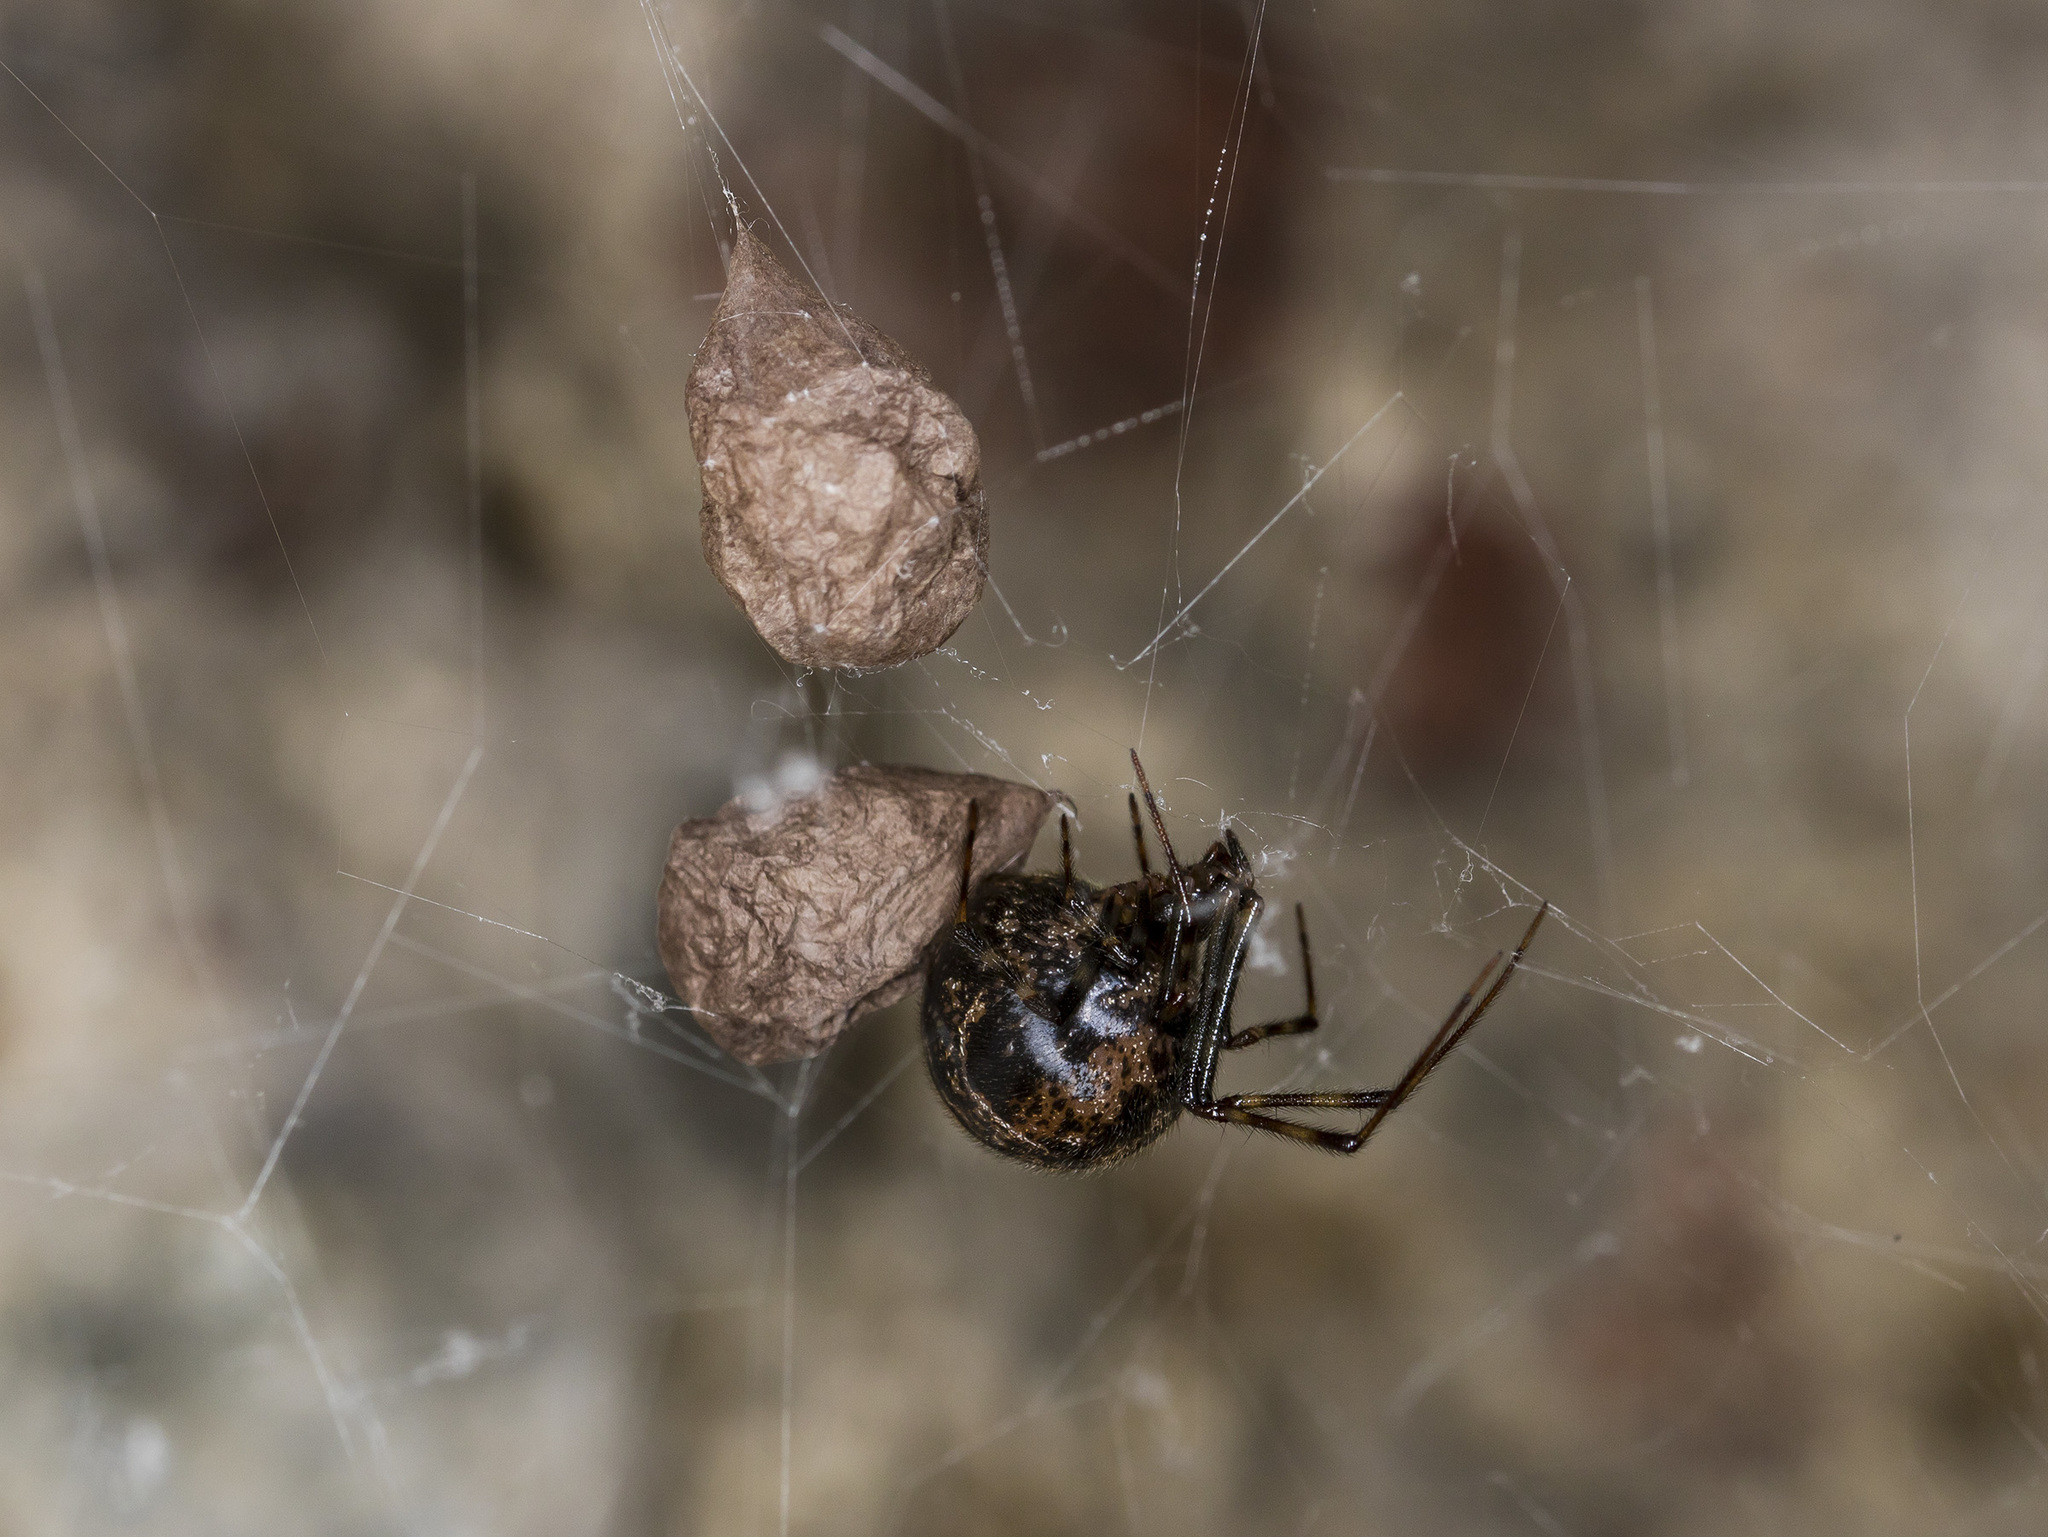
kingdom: Animalia
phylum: Arthropoda
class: Arachnida
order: Araneae
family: Theridiidae
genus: Parasteatoda
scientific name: Parasteatoda tepidariorum
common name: Common house spider
